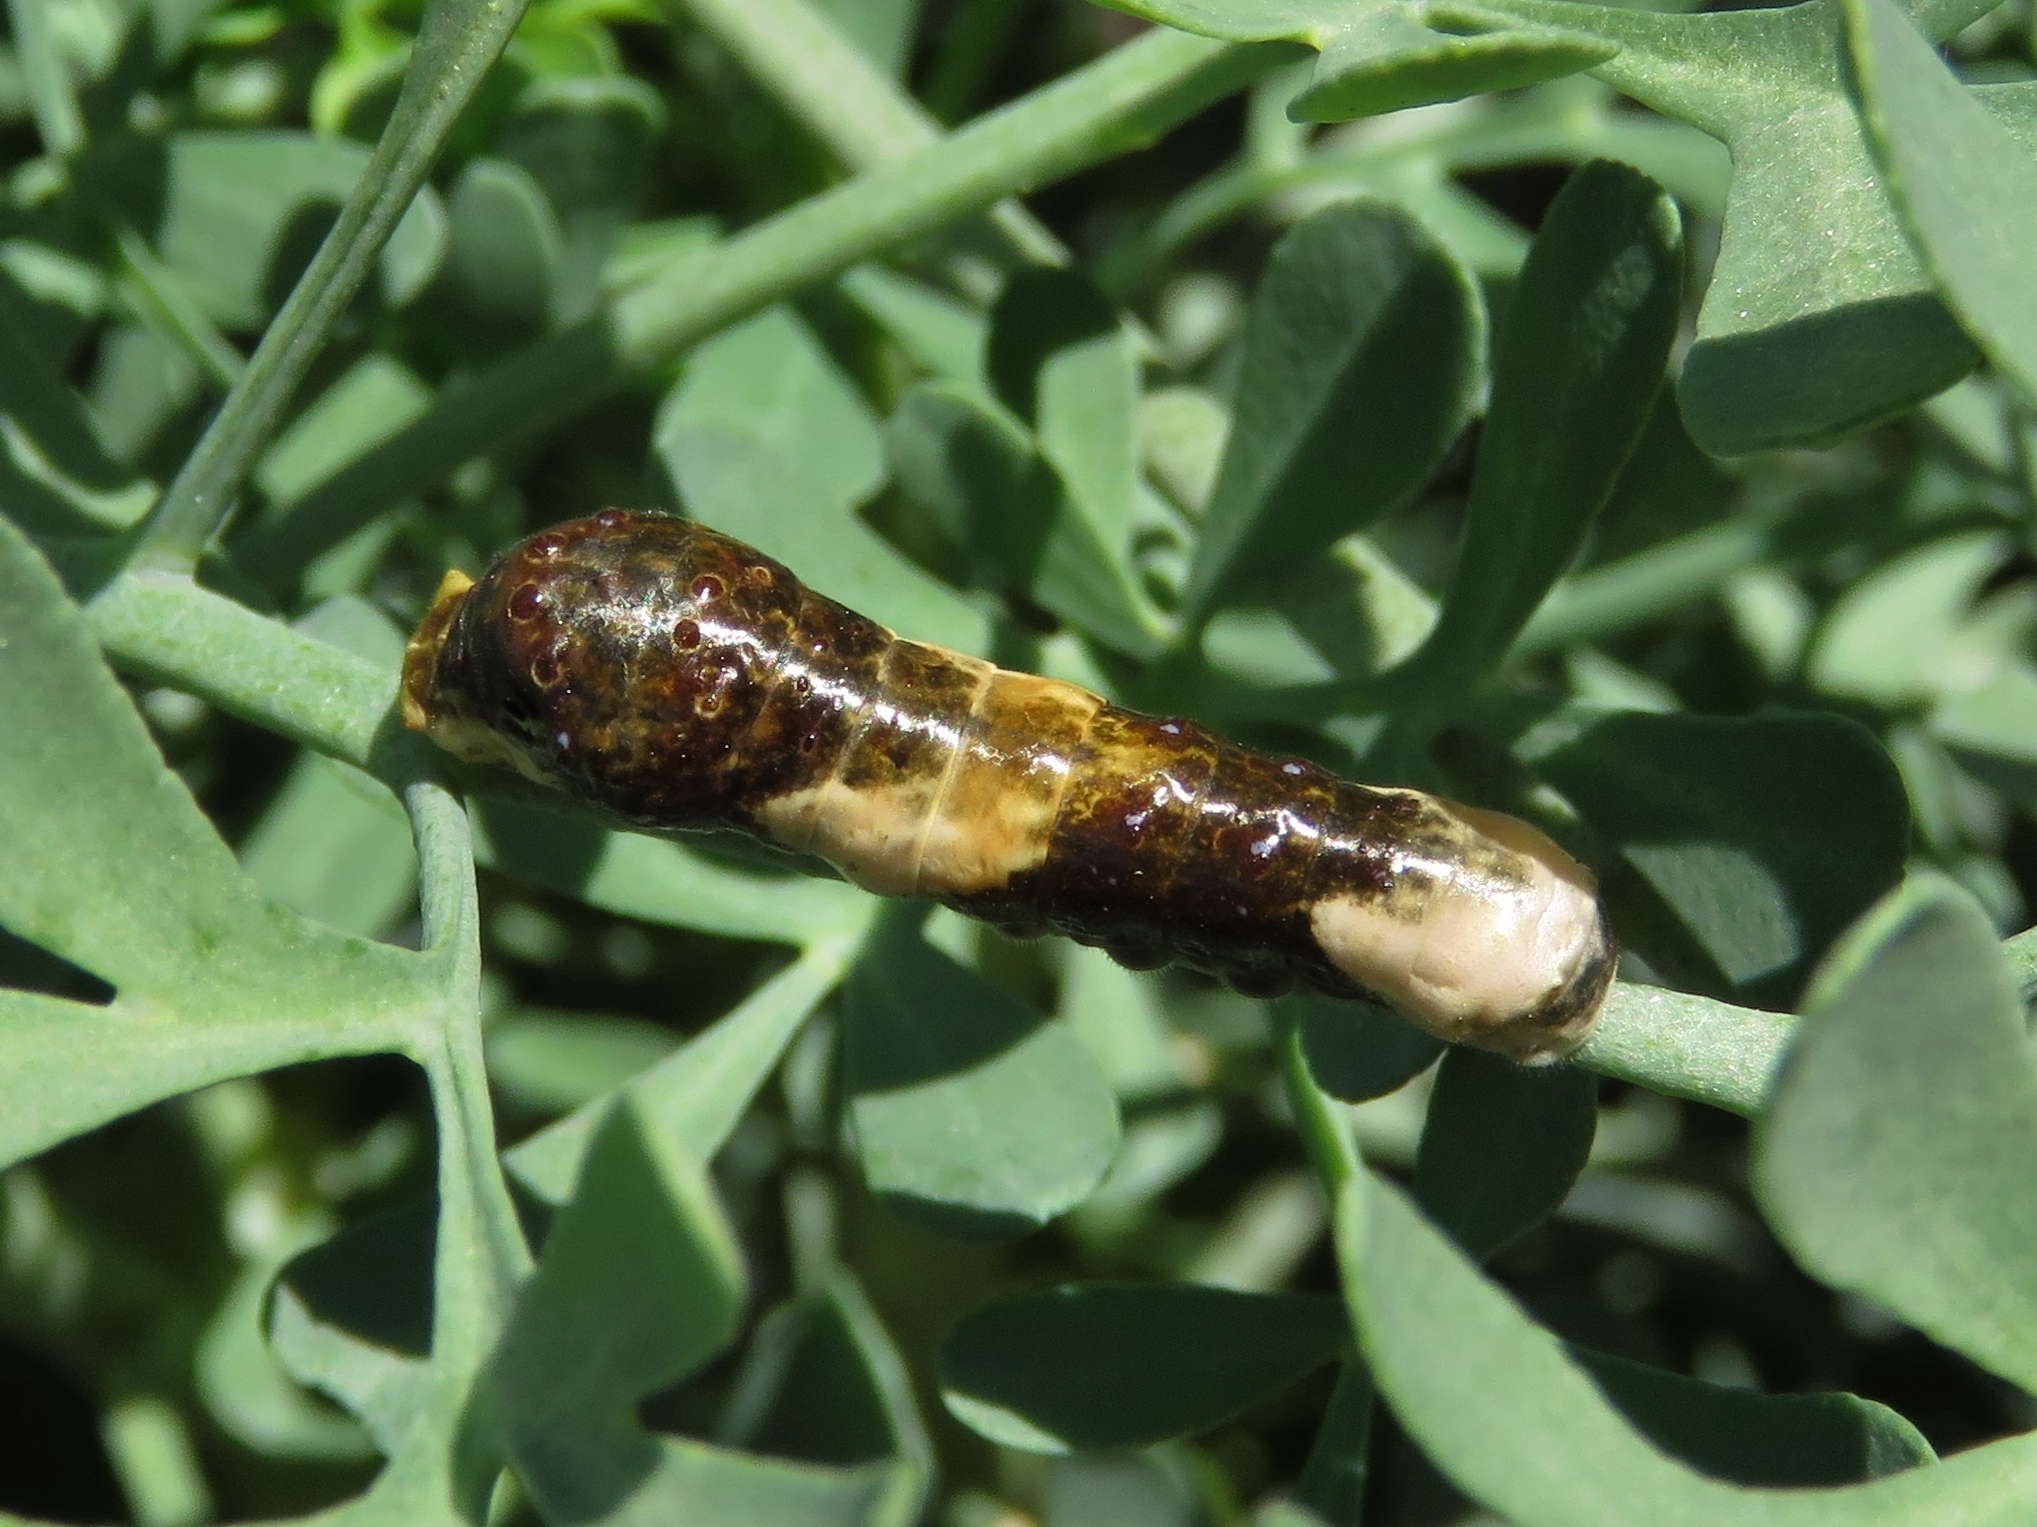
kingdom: Animalia
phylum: Arthropoda
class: Insecta
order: Lepidoptera
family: Papilionidae
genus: Papilio
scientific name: Papilio cresphontes
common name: Giant swallowtail
